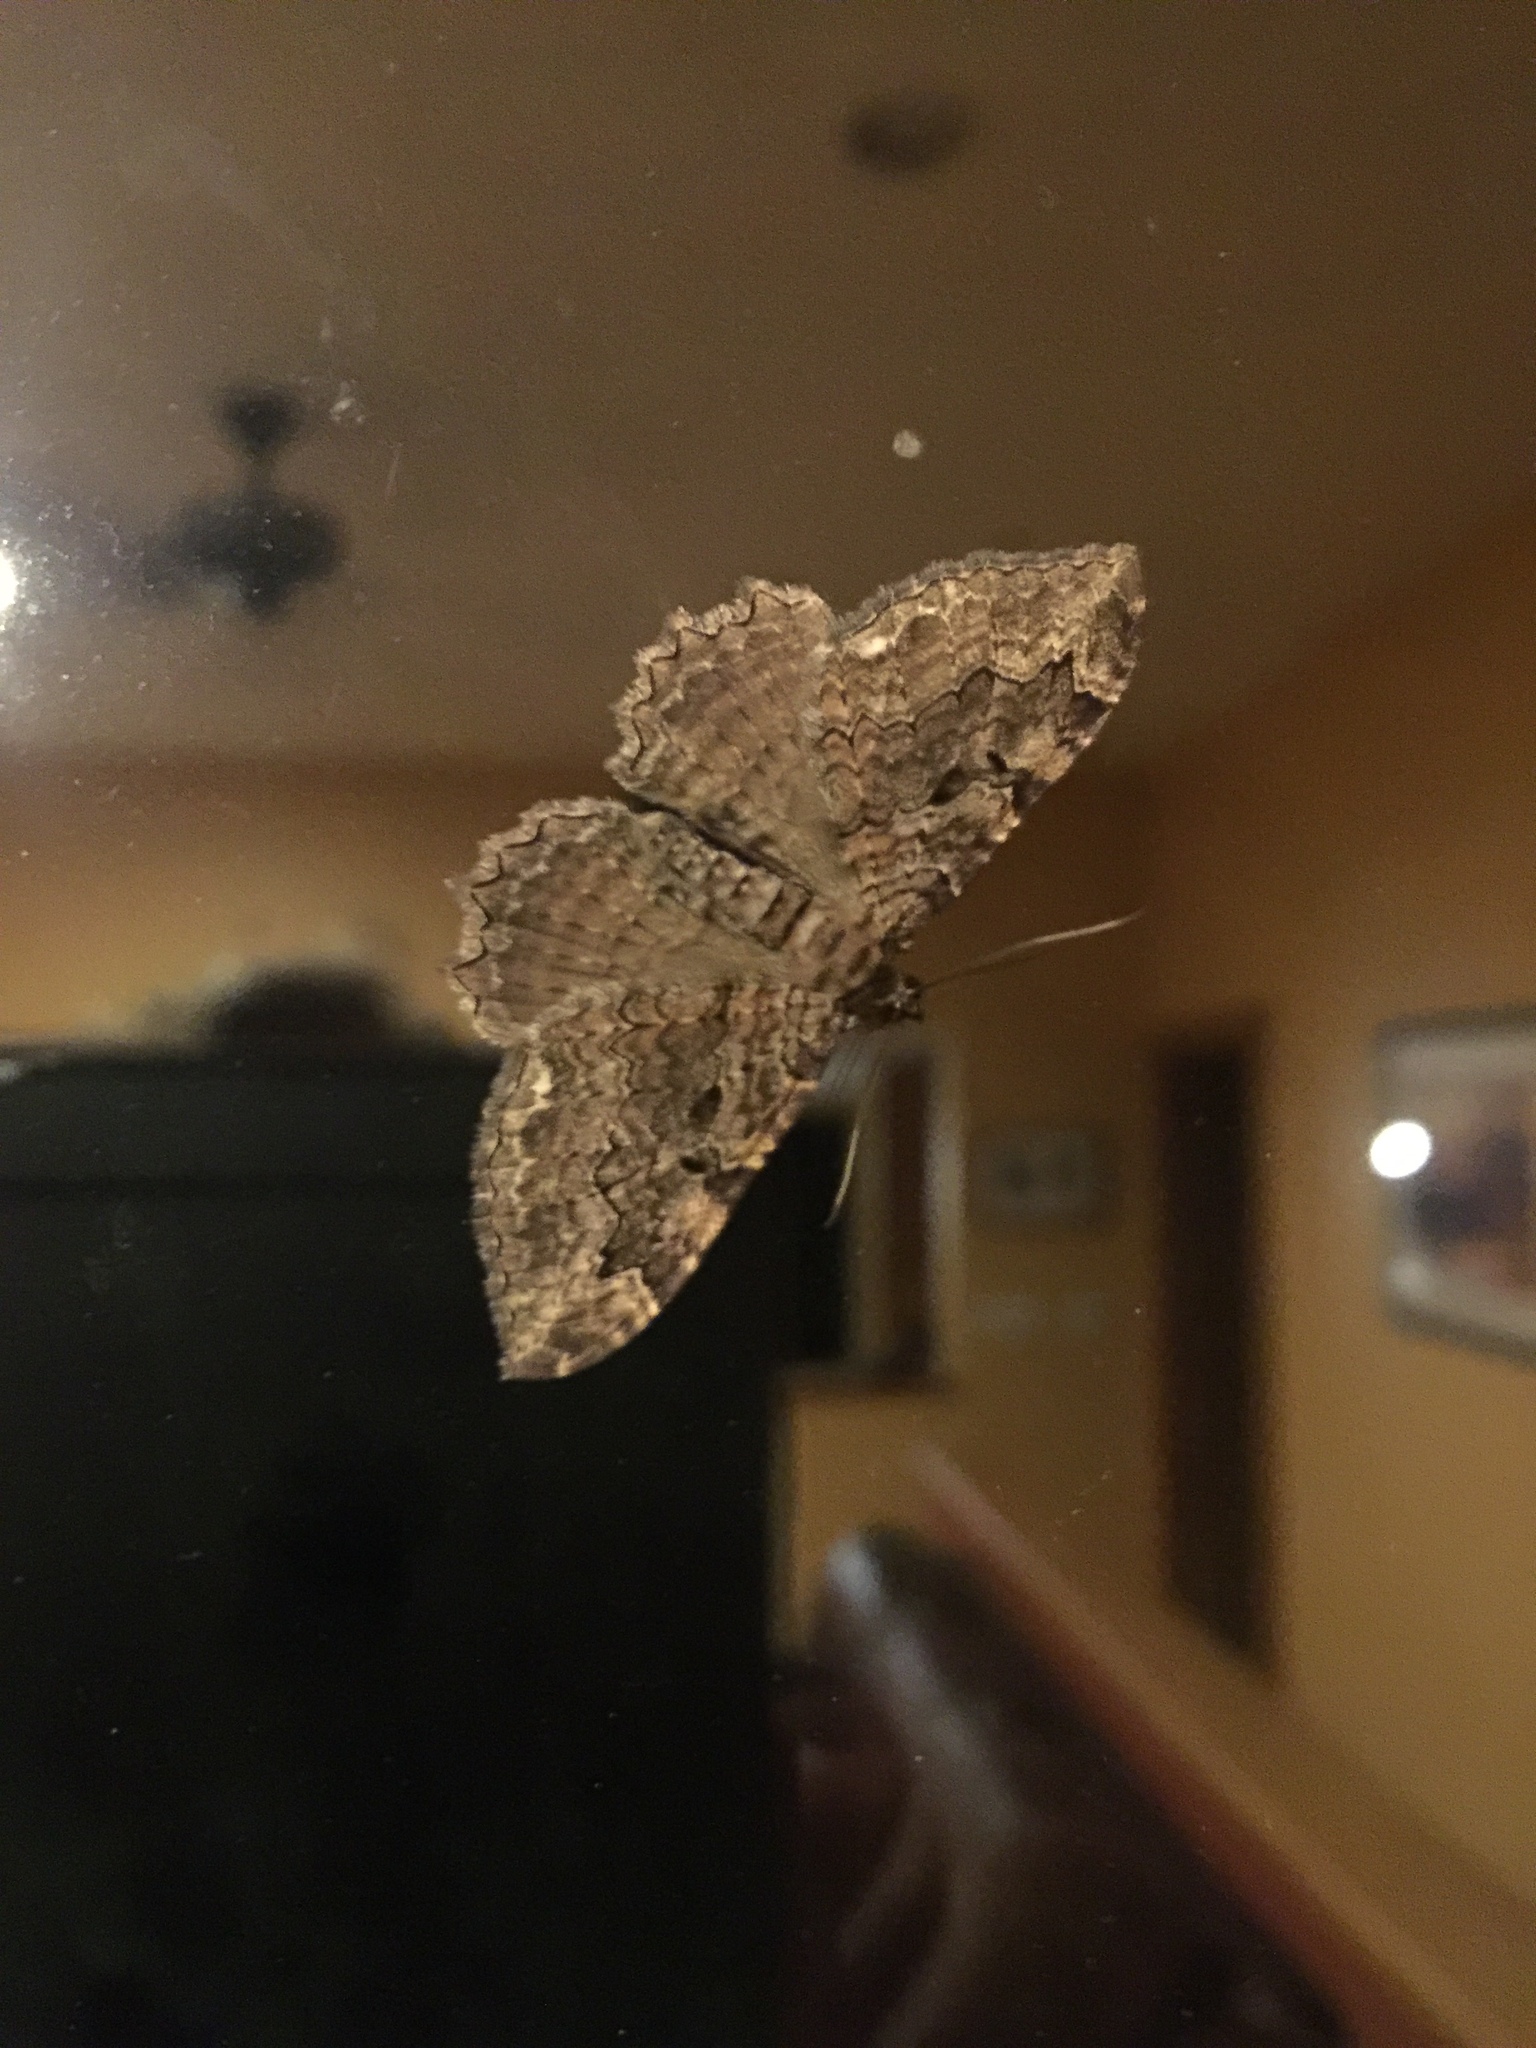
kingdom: Animalia
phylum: Arthropoda
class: Insecta
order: Lepidoptera
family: Geometridae
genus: Rheumaptera
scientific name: Rheumaptera
